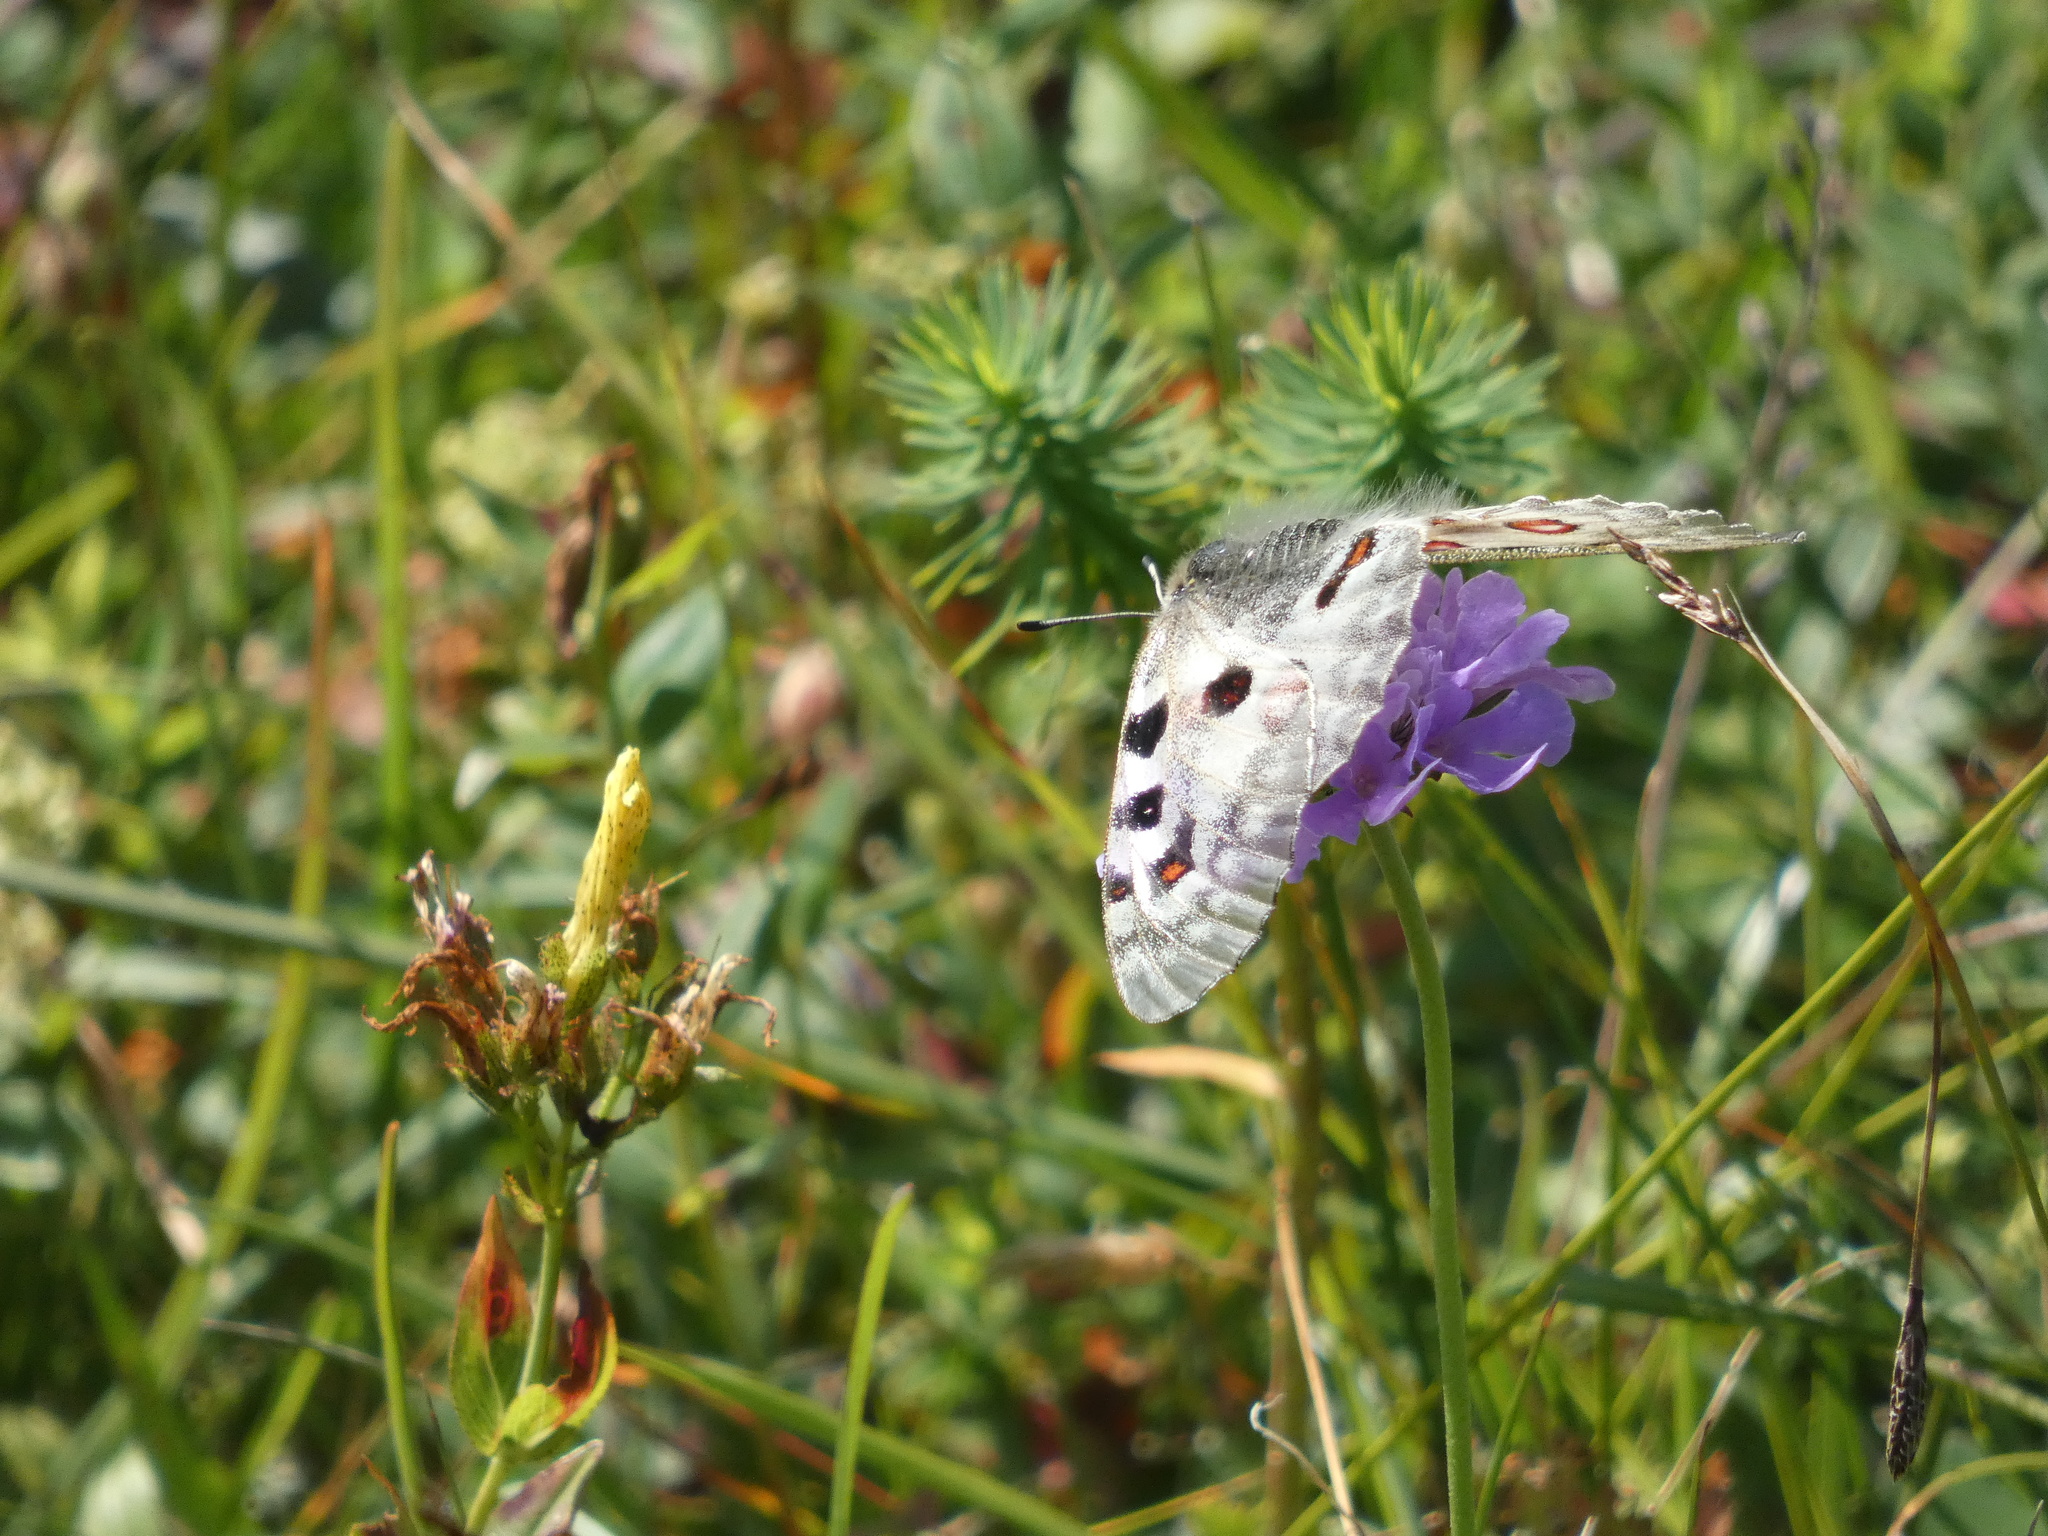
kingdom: Animalia
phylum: Arthropoda
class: Insecta
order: Lepidoptera
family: Papilionidae
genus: Parnassius
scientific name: Parnassius apollo
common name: Apollo
